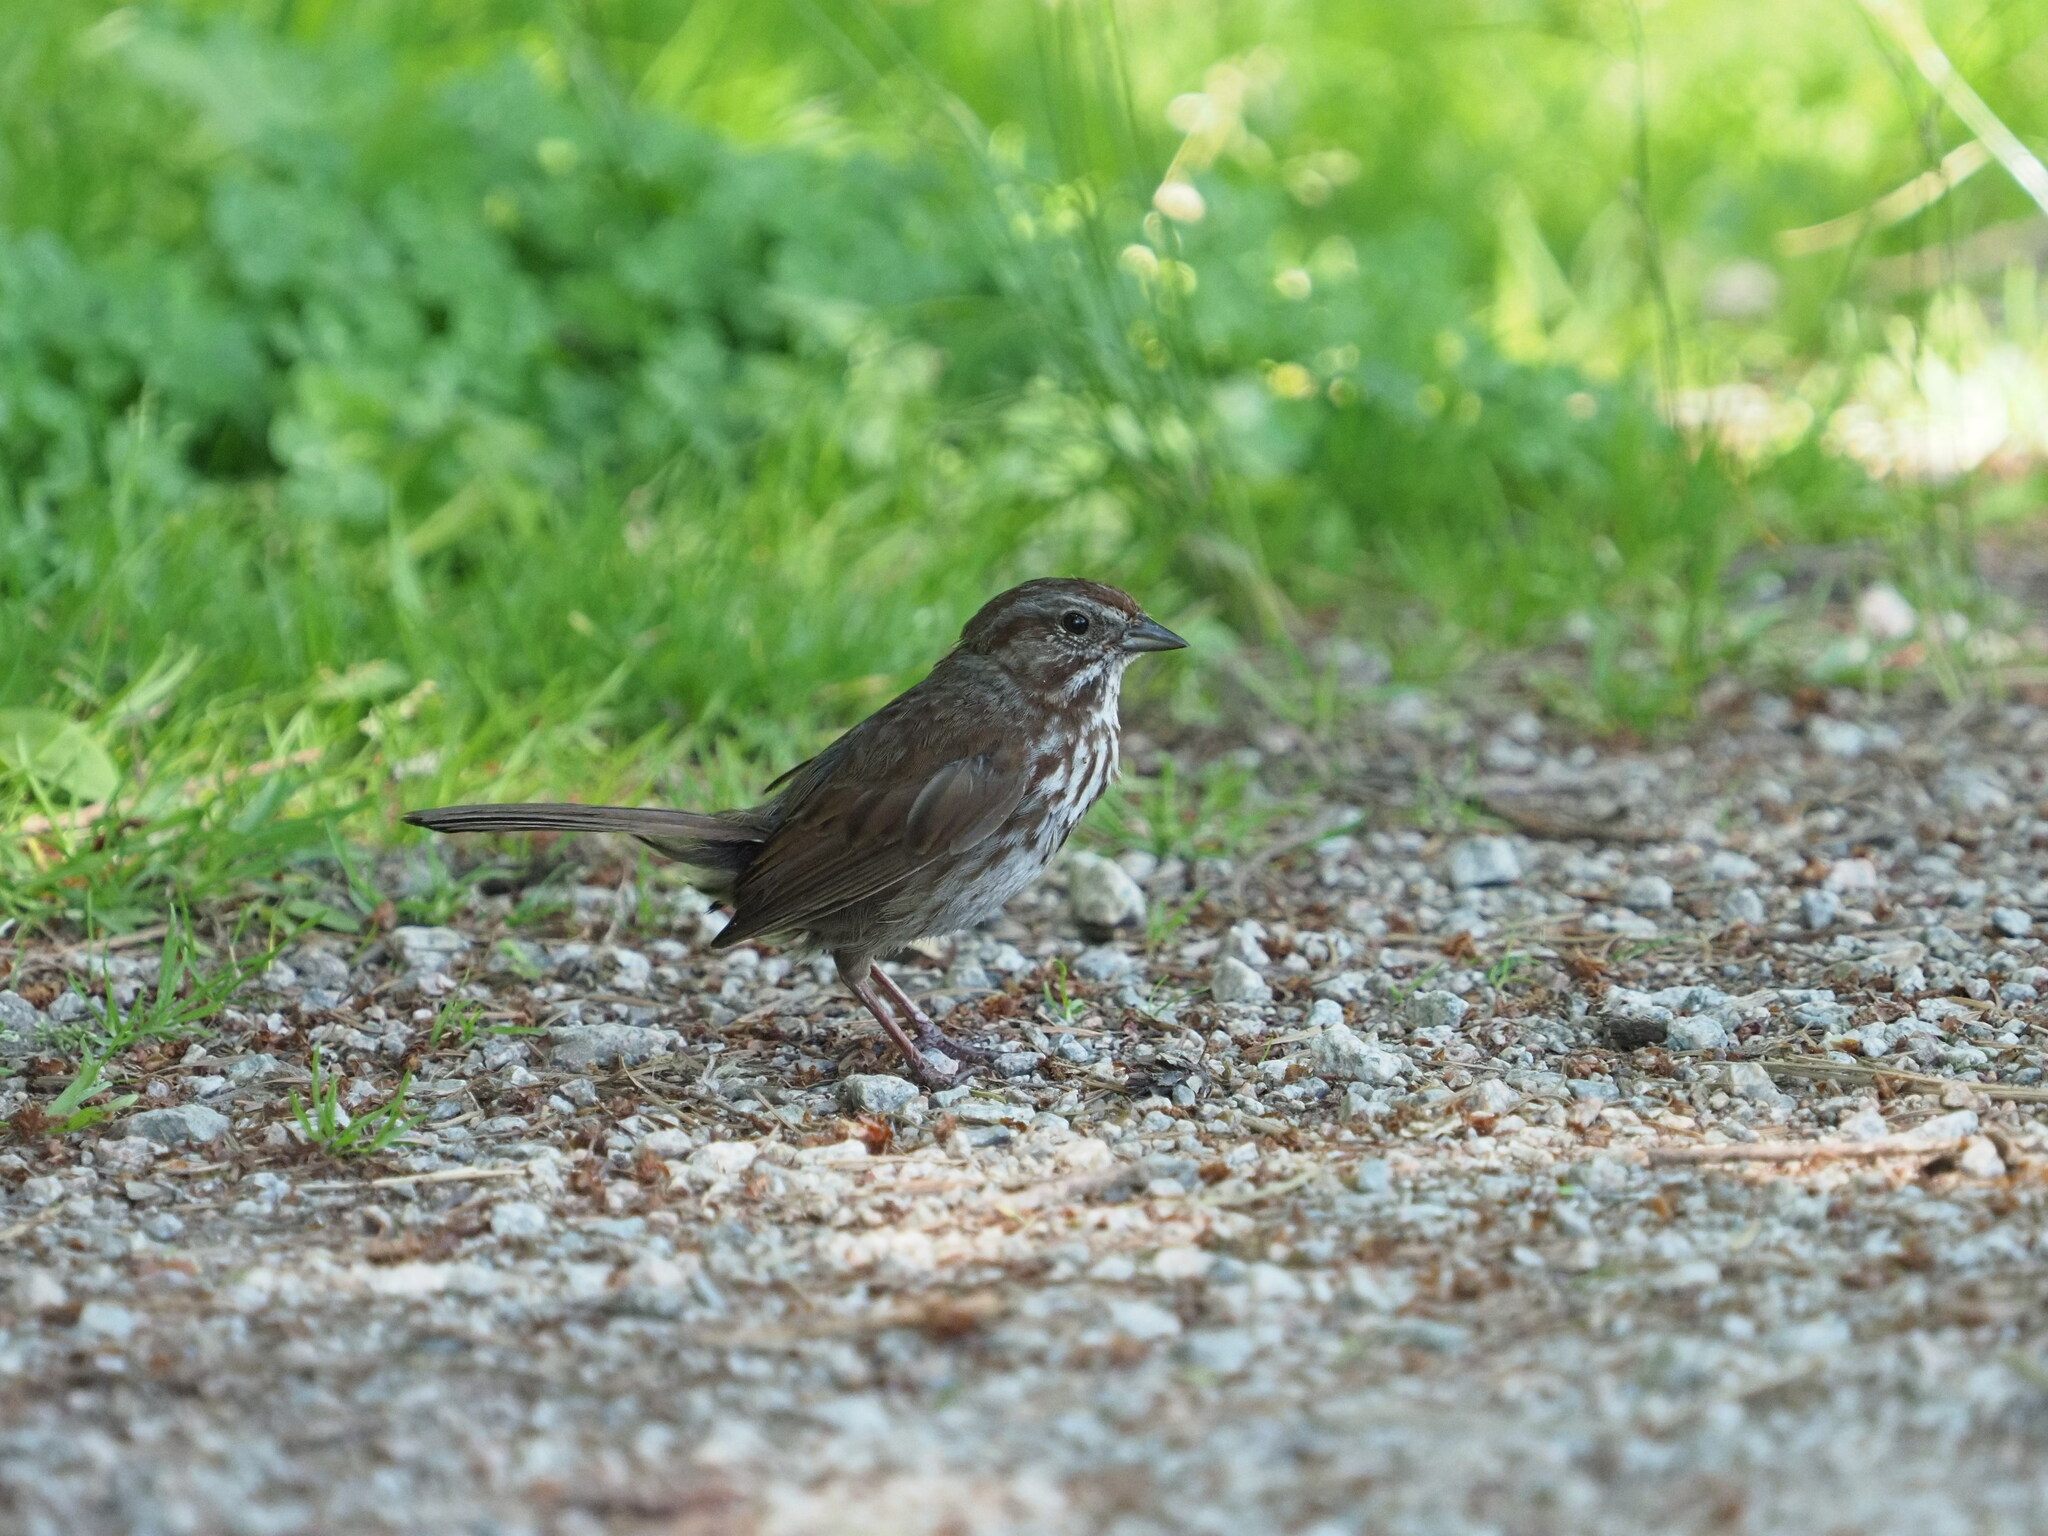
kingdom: Animalia
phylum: Chordata
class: Aves
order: Passeriformes
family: Passerellidae
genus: Melospiza
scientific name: Melospiza melodia
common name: Song sparrow
